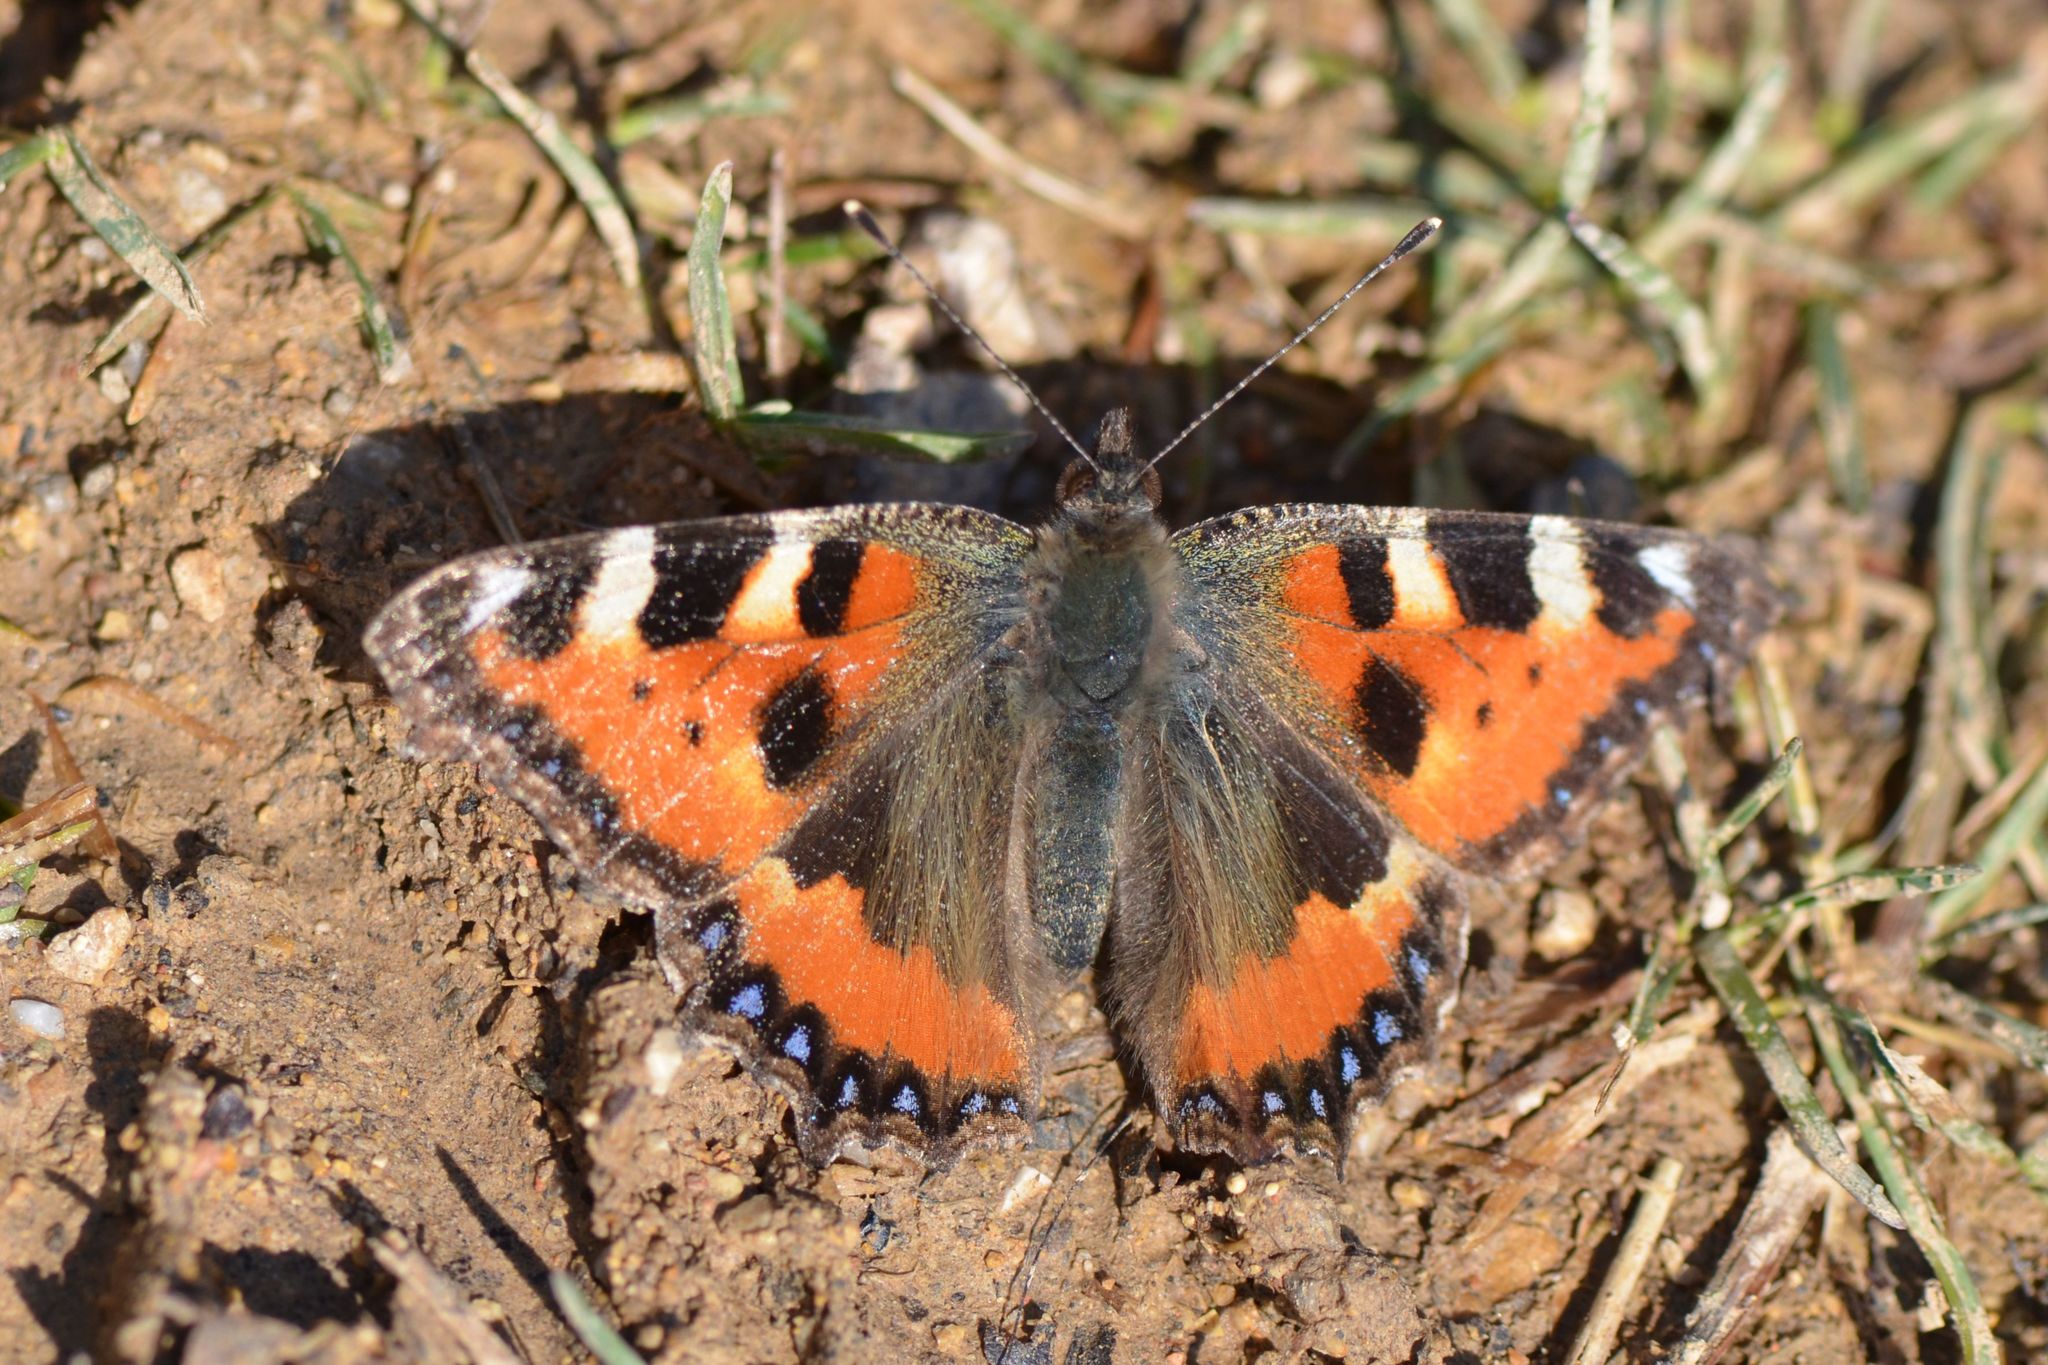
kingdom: Animalia
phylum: Arthropoda
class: Insecta
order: Lepidoptera
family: Nymphalidae
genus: Aglais
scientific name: Aglais urticae
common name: Small tortoiseshell
